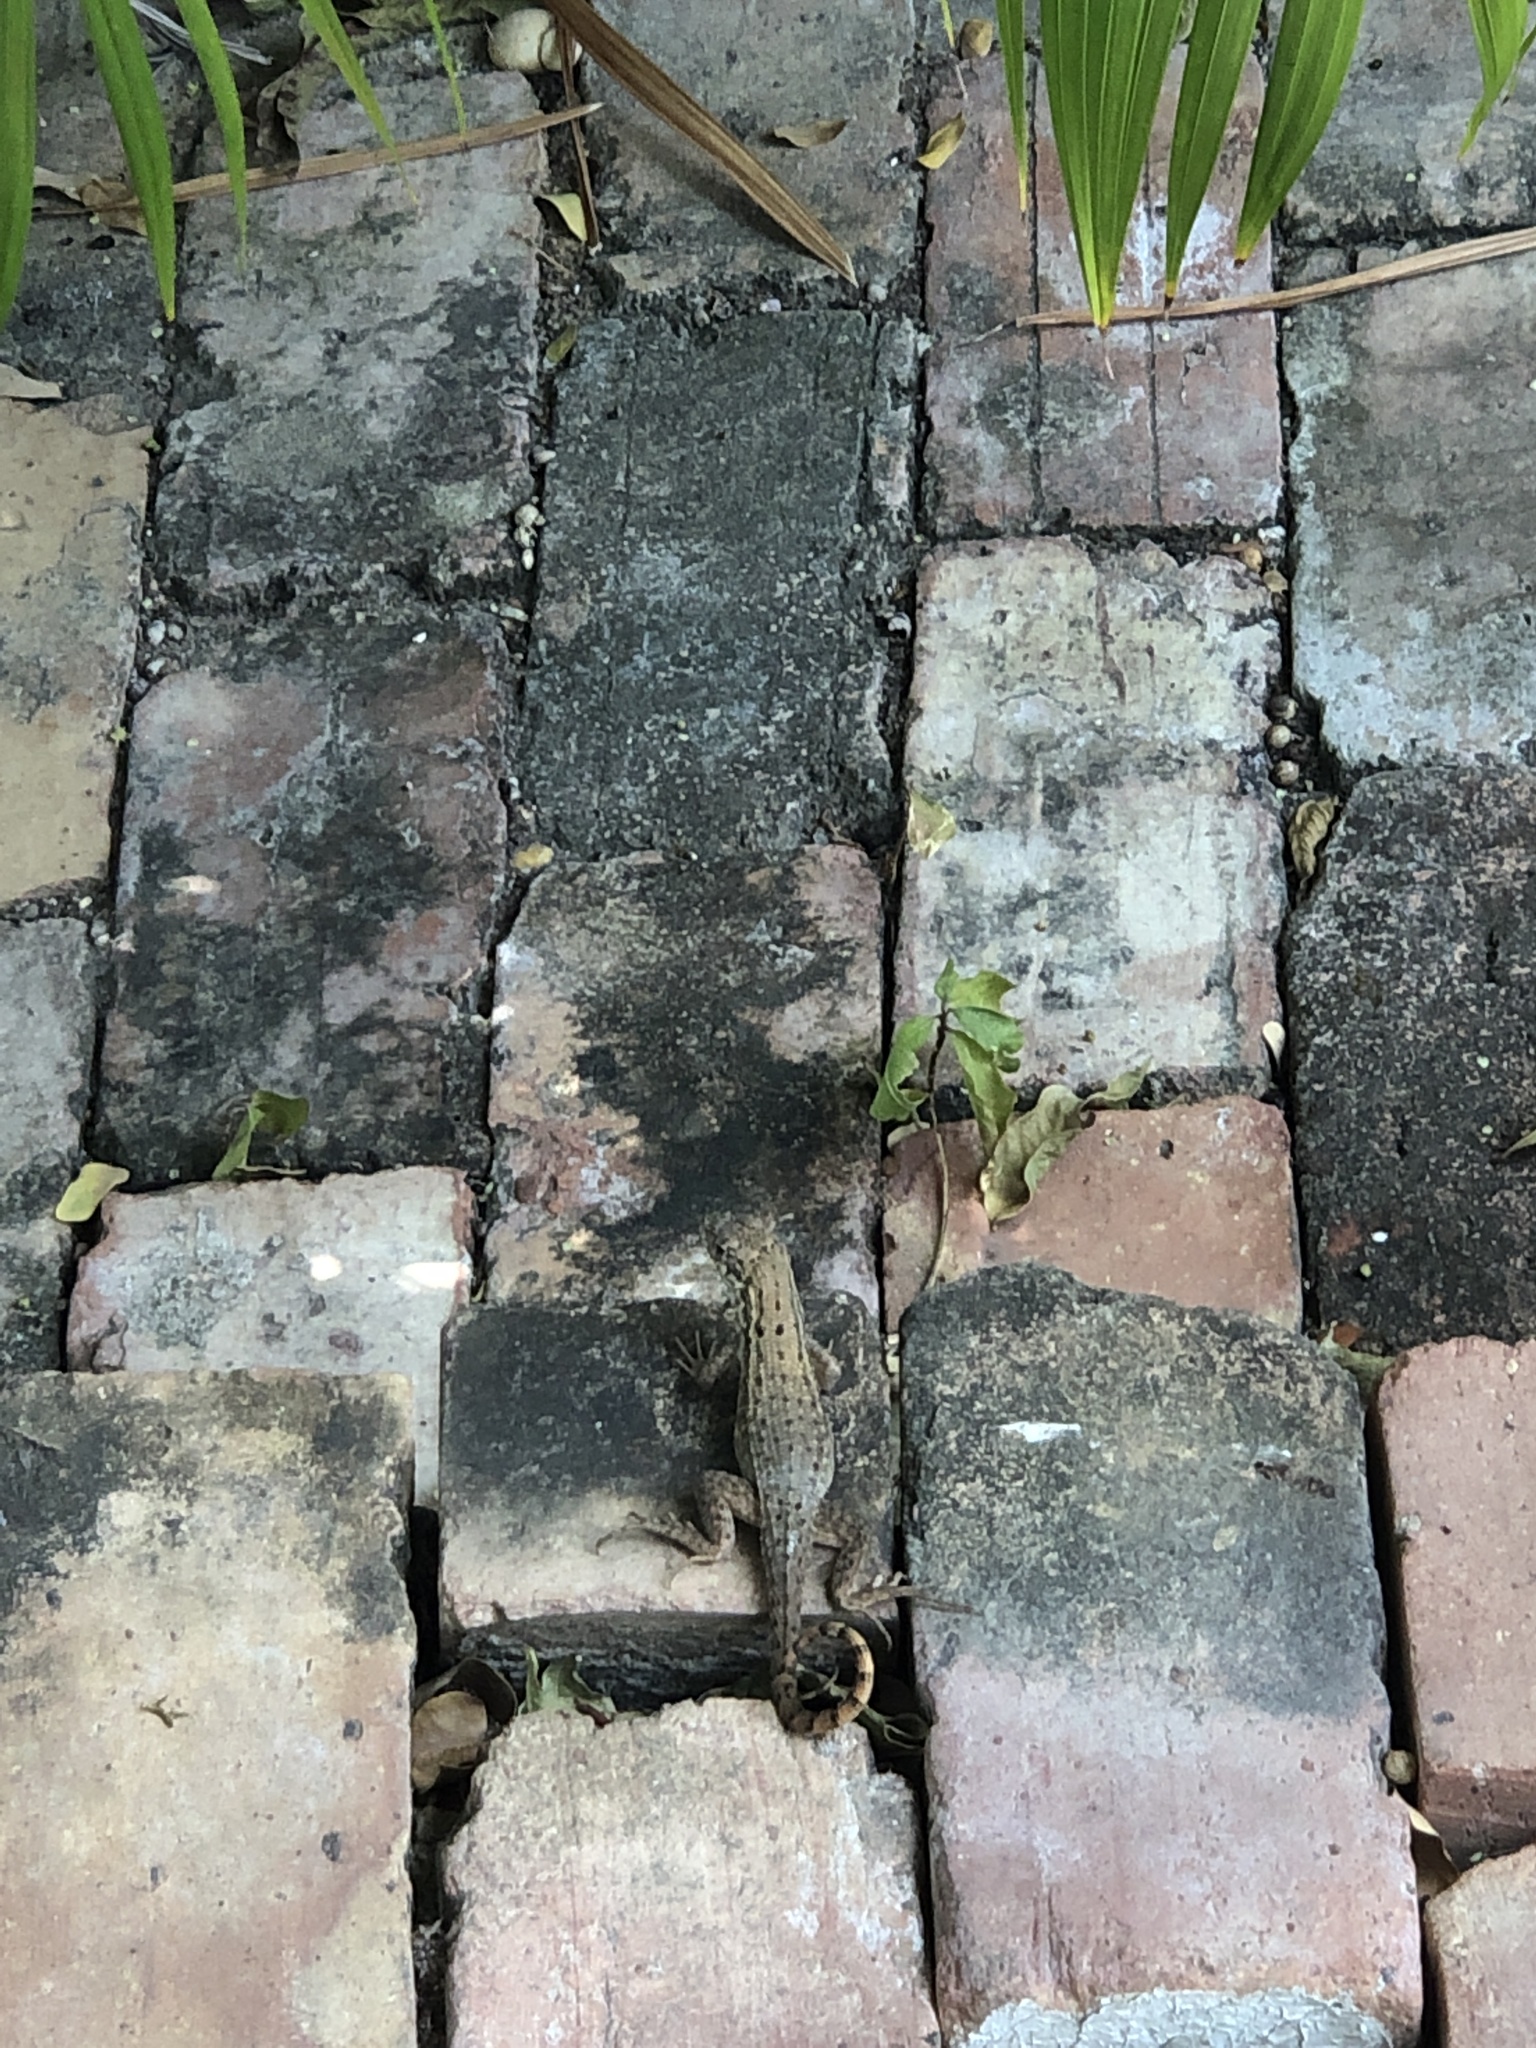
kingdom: Animalia
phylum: Chordata
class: Squamata
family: Leiocephalidae
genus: Leiocephalus
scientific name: Leiocephalus carinatus
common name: Northern curly-tailed lizard
